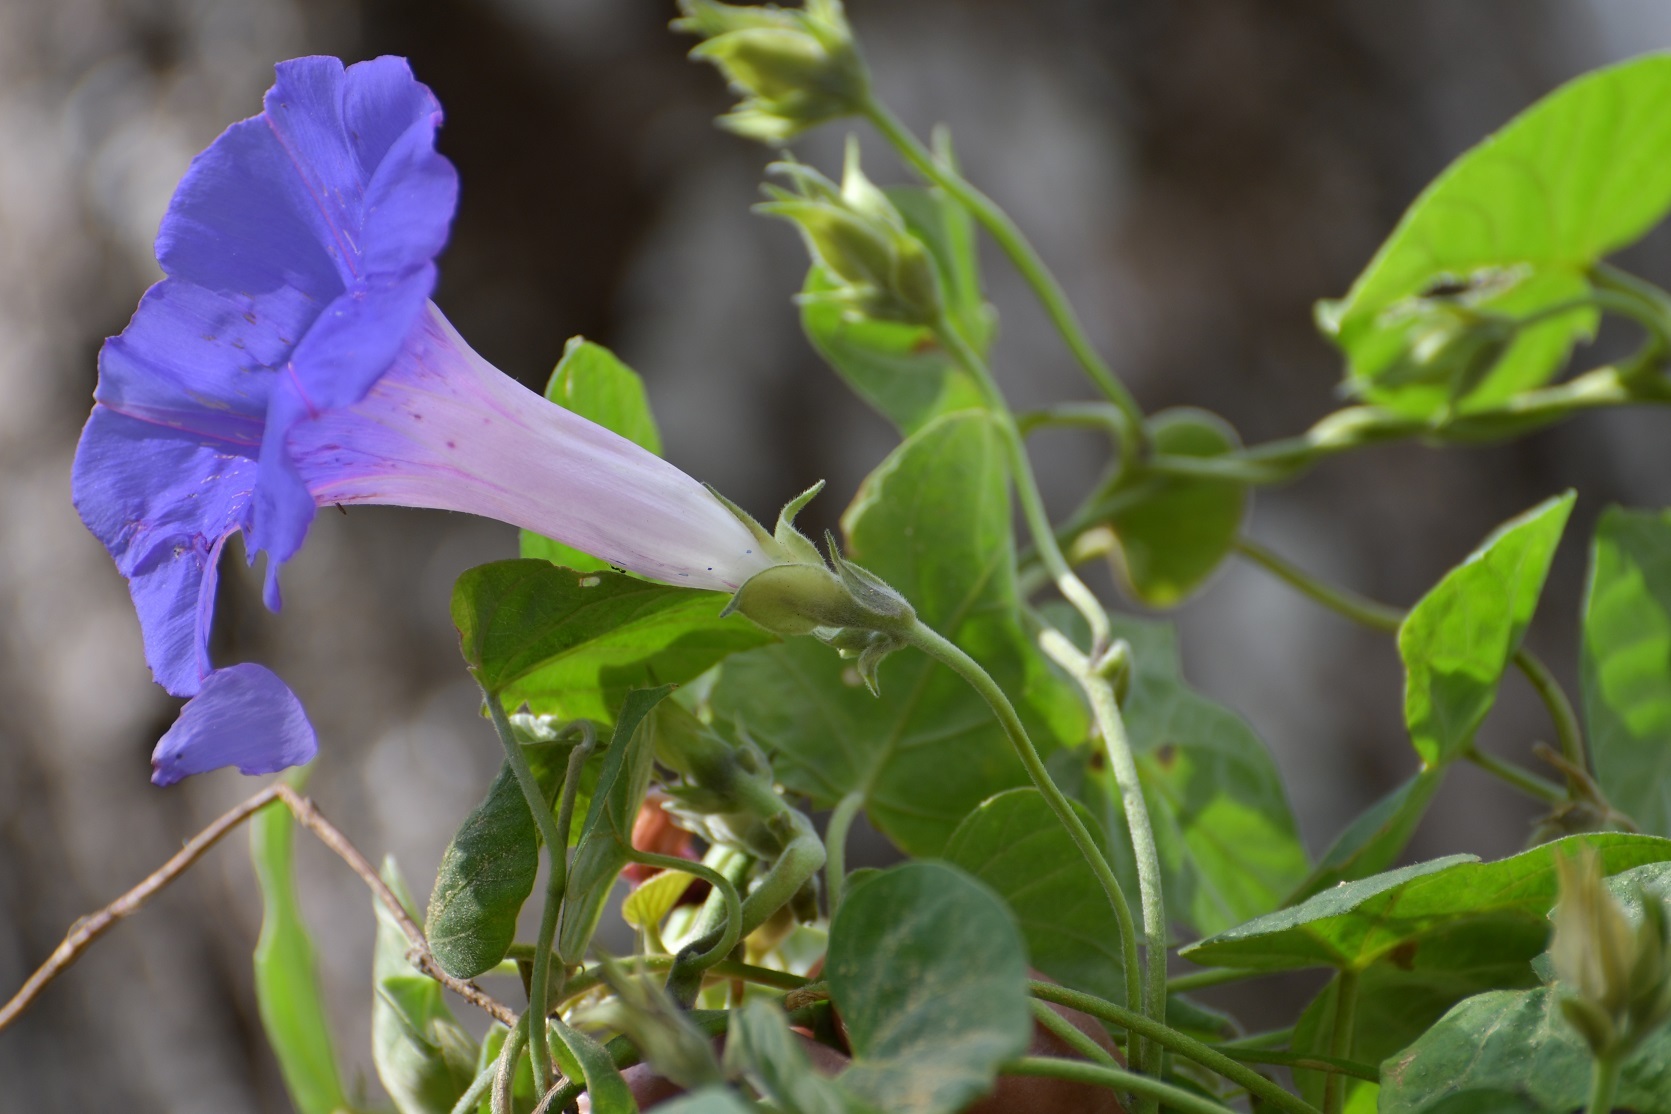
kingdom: Plantae
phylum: Tracheophyta
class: Magnoliopsida
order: Solanales
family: Convolvulaceae
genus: Ipomoea
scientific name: Ipomoea mitchelliae
